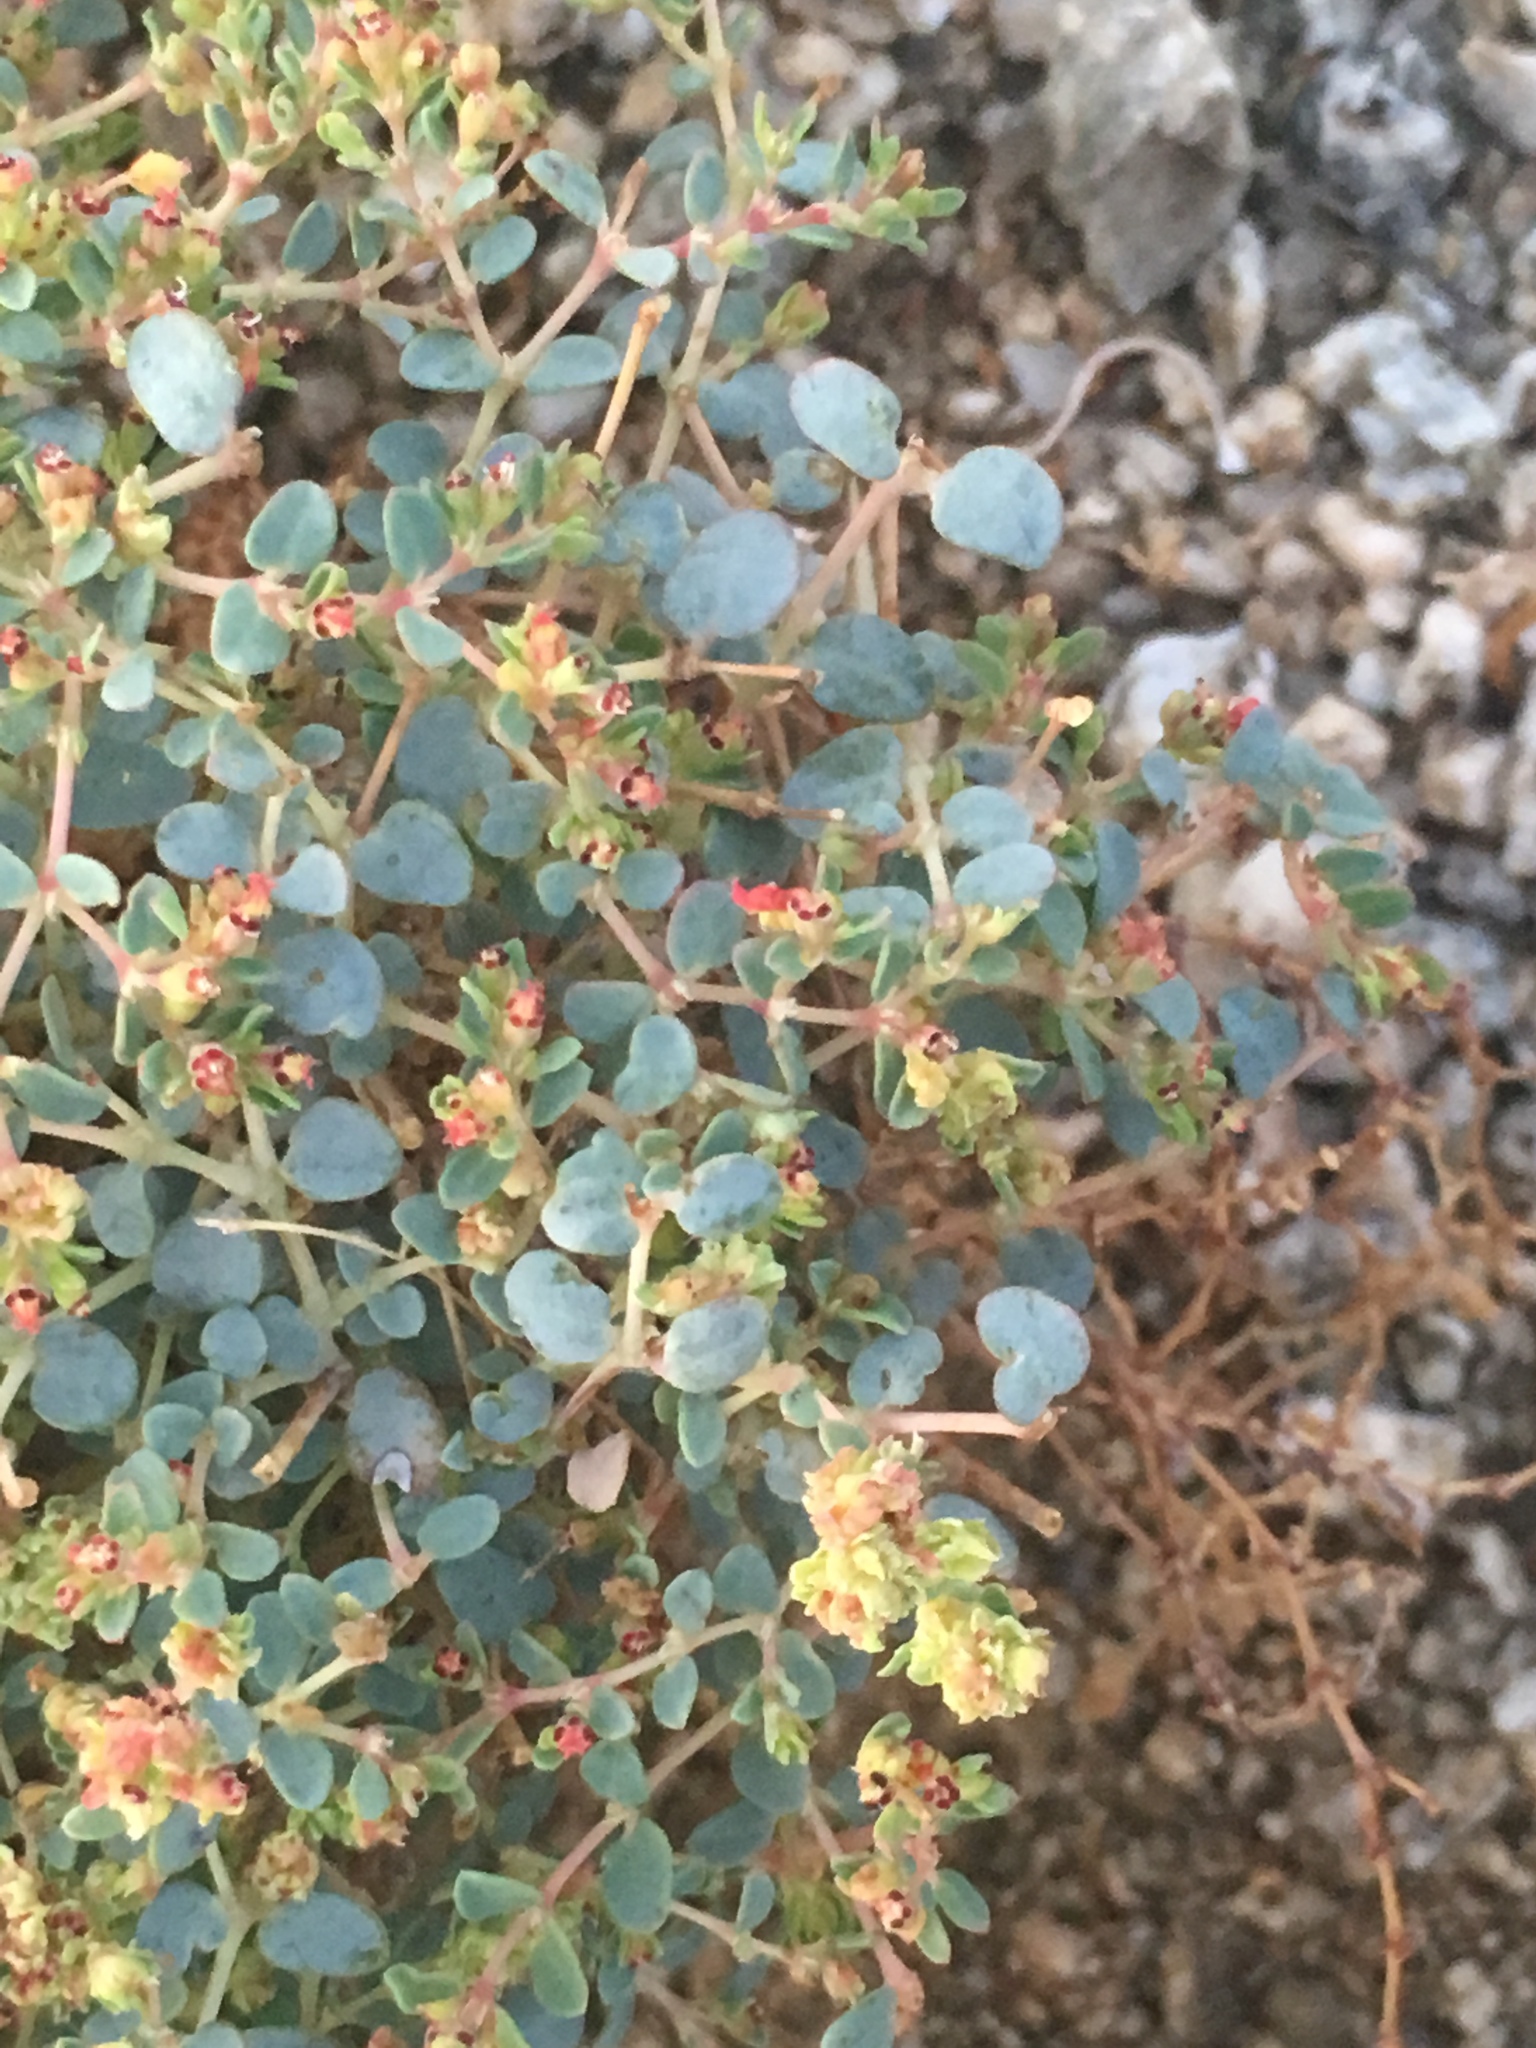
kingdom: Plantae
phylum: Tracheophyta
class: Magnoliopsida
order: Malpighiales
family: Euphorbiaceae
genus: Euphorbia
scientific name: Euphorbia polycarpa
